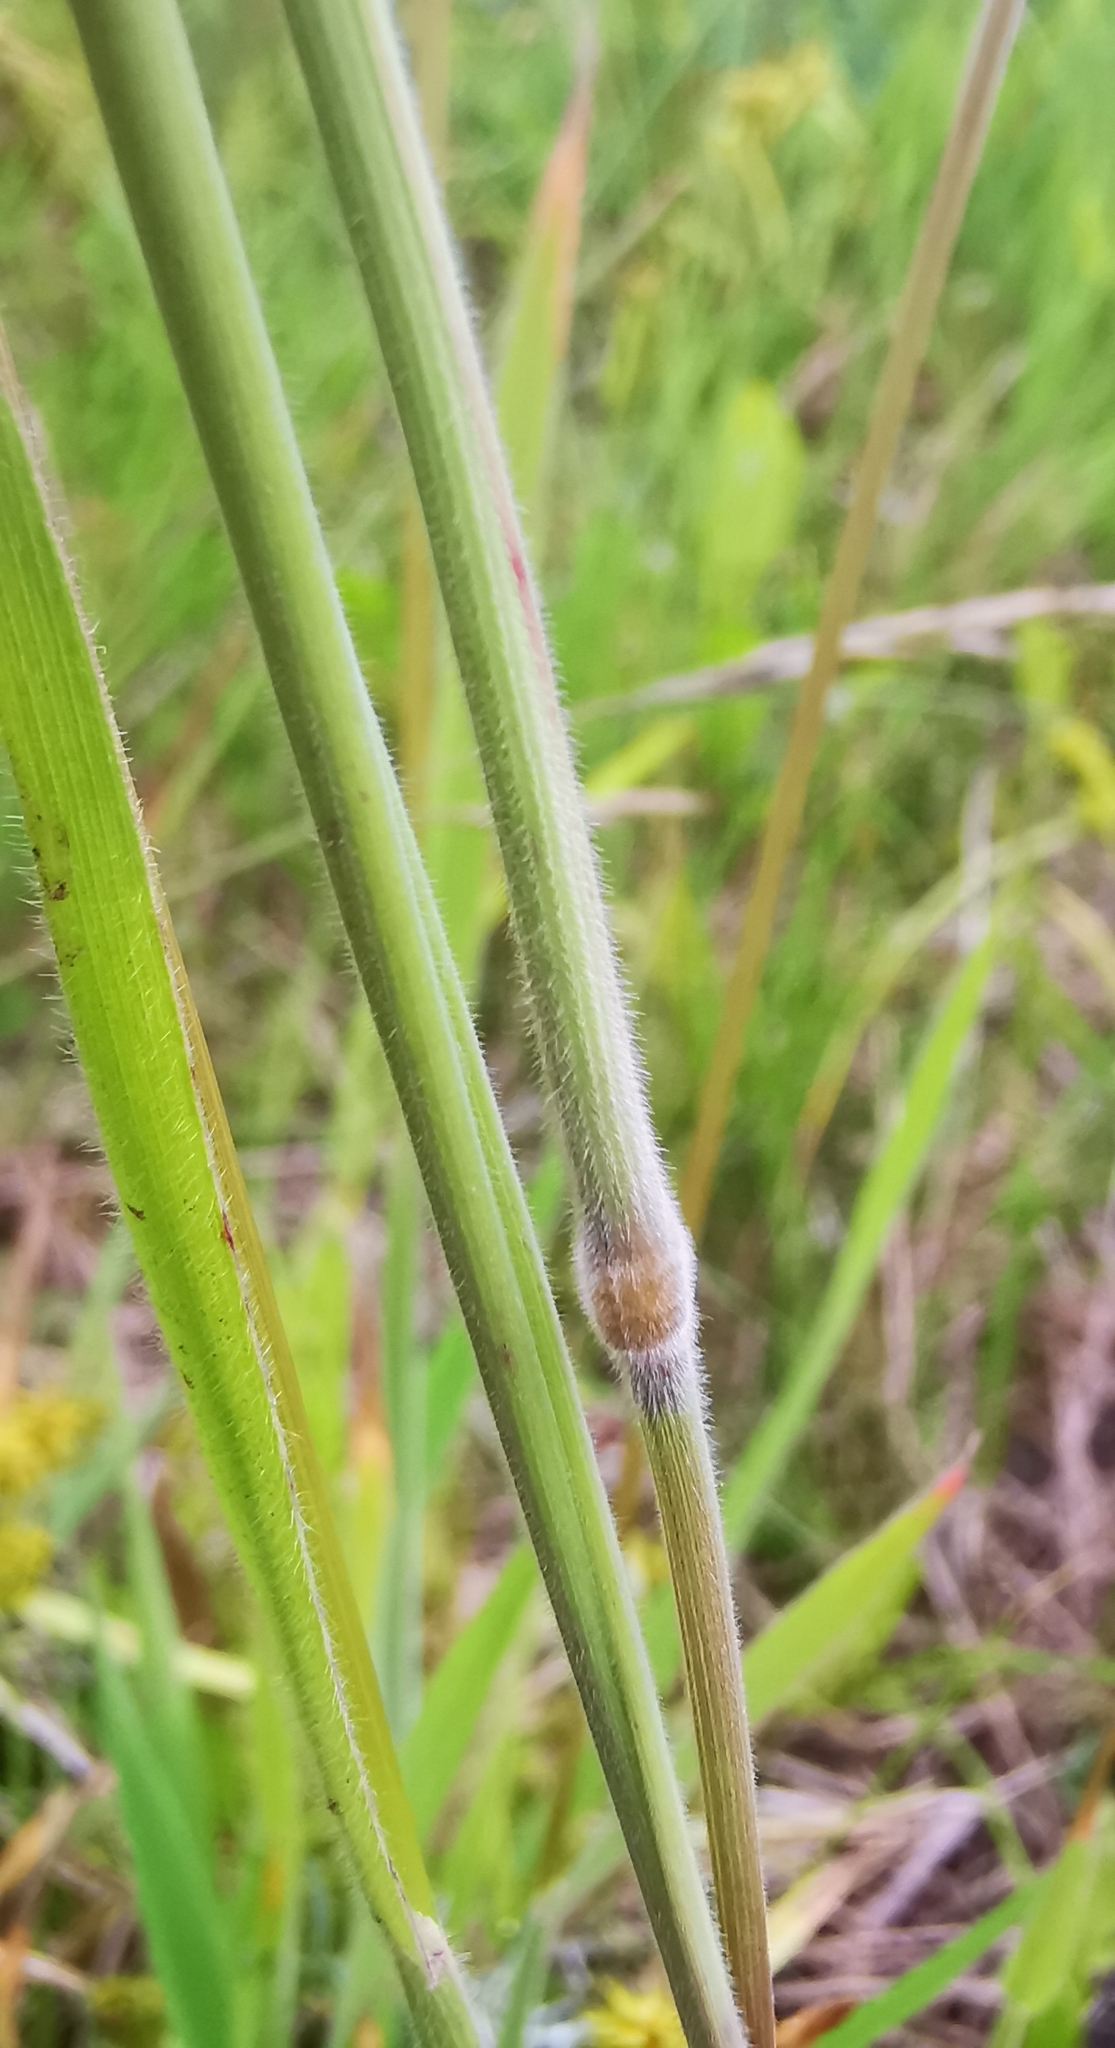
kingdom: Plantae
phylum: Tracheophyta
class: Liliopsida
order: Poales
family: Poaceae
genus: Holcus
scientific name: Holcus lanatus
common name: Yorkshire-fog
